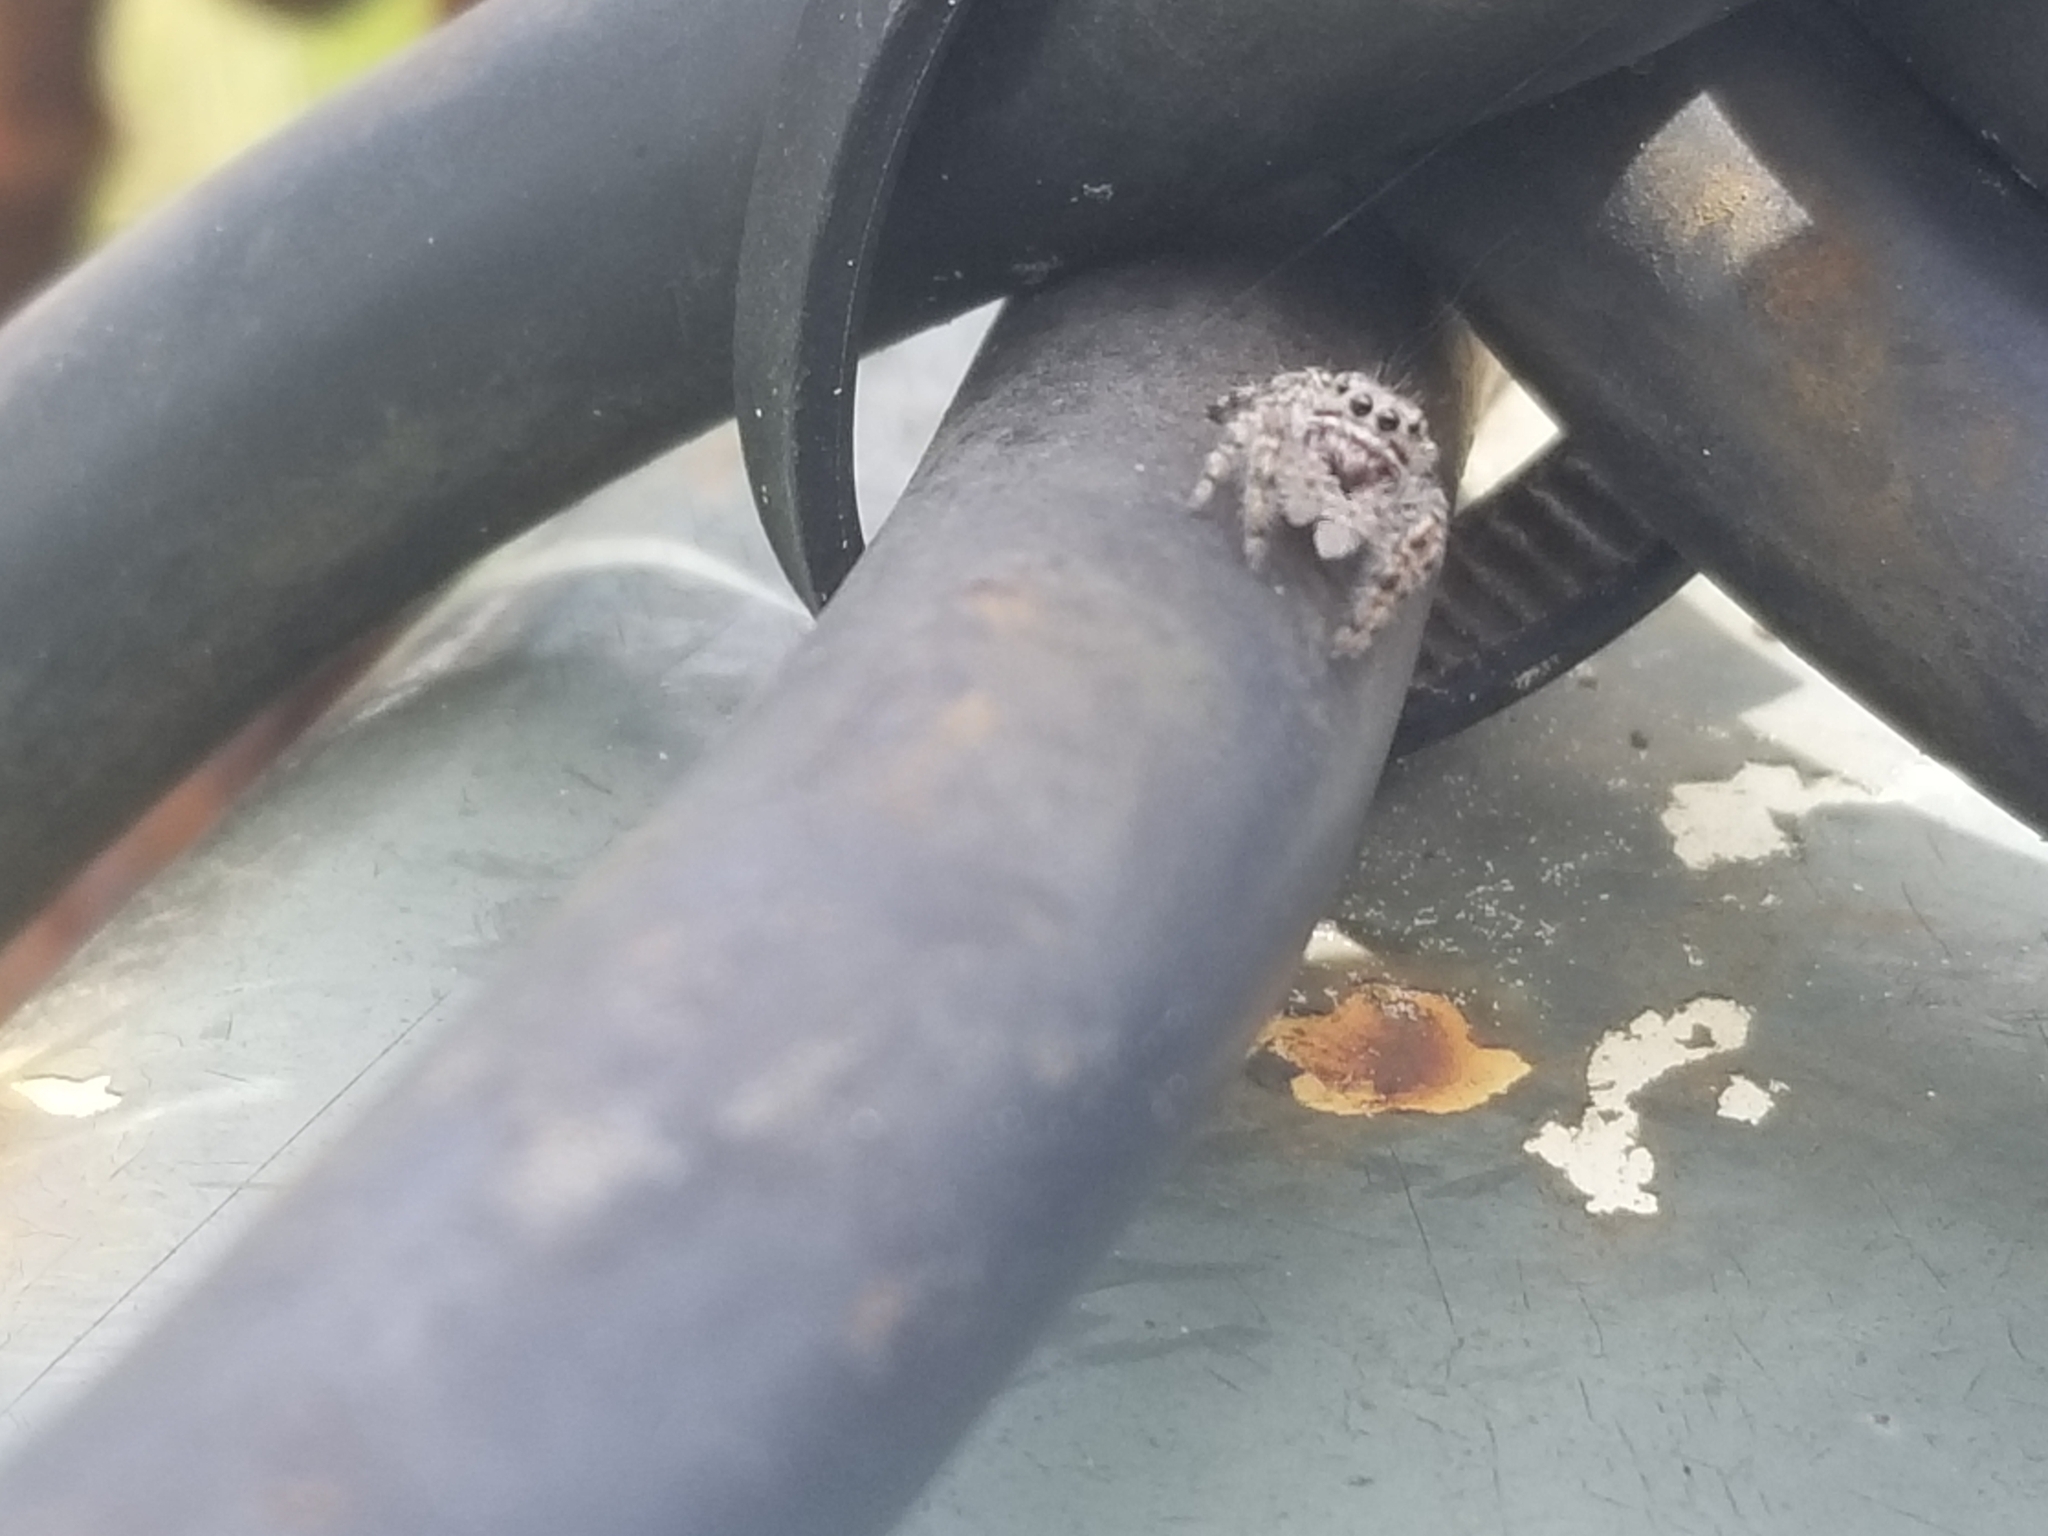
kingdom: Animalia
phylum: Arthropoda
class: Arachnida
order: Araneae
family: Salticidae
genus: Phidippus
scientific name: Phidippus putnami
